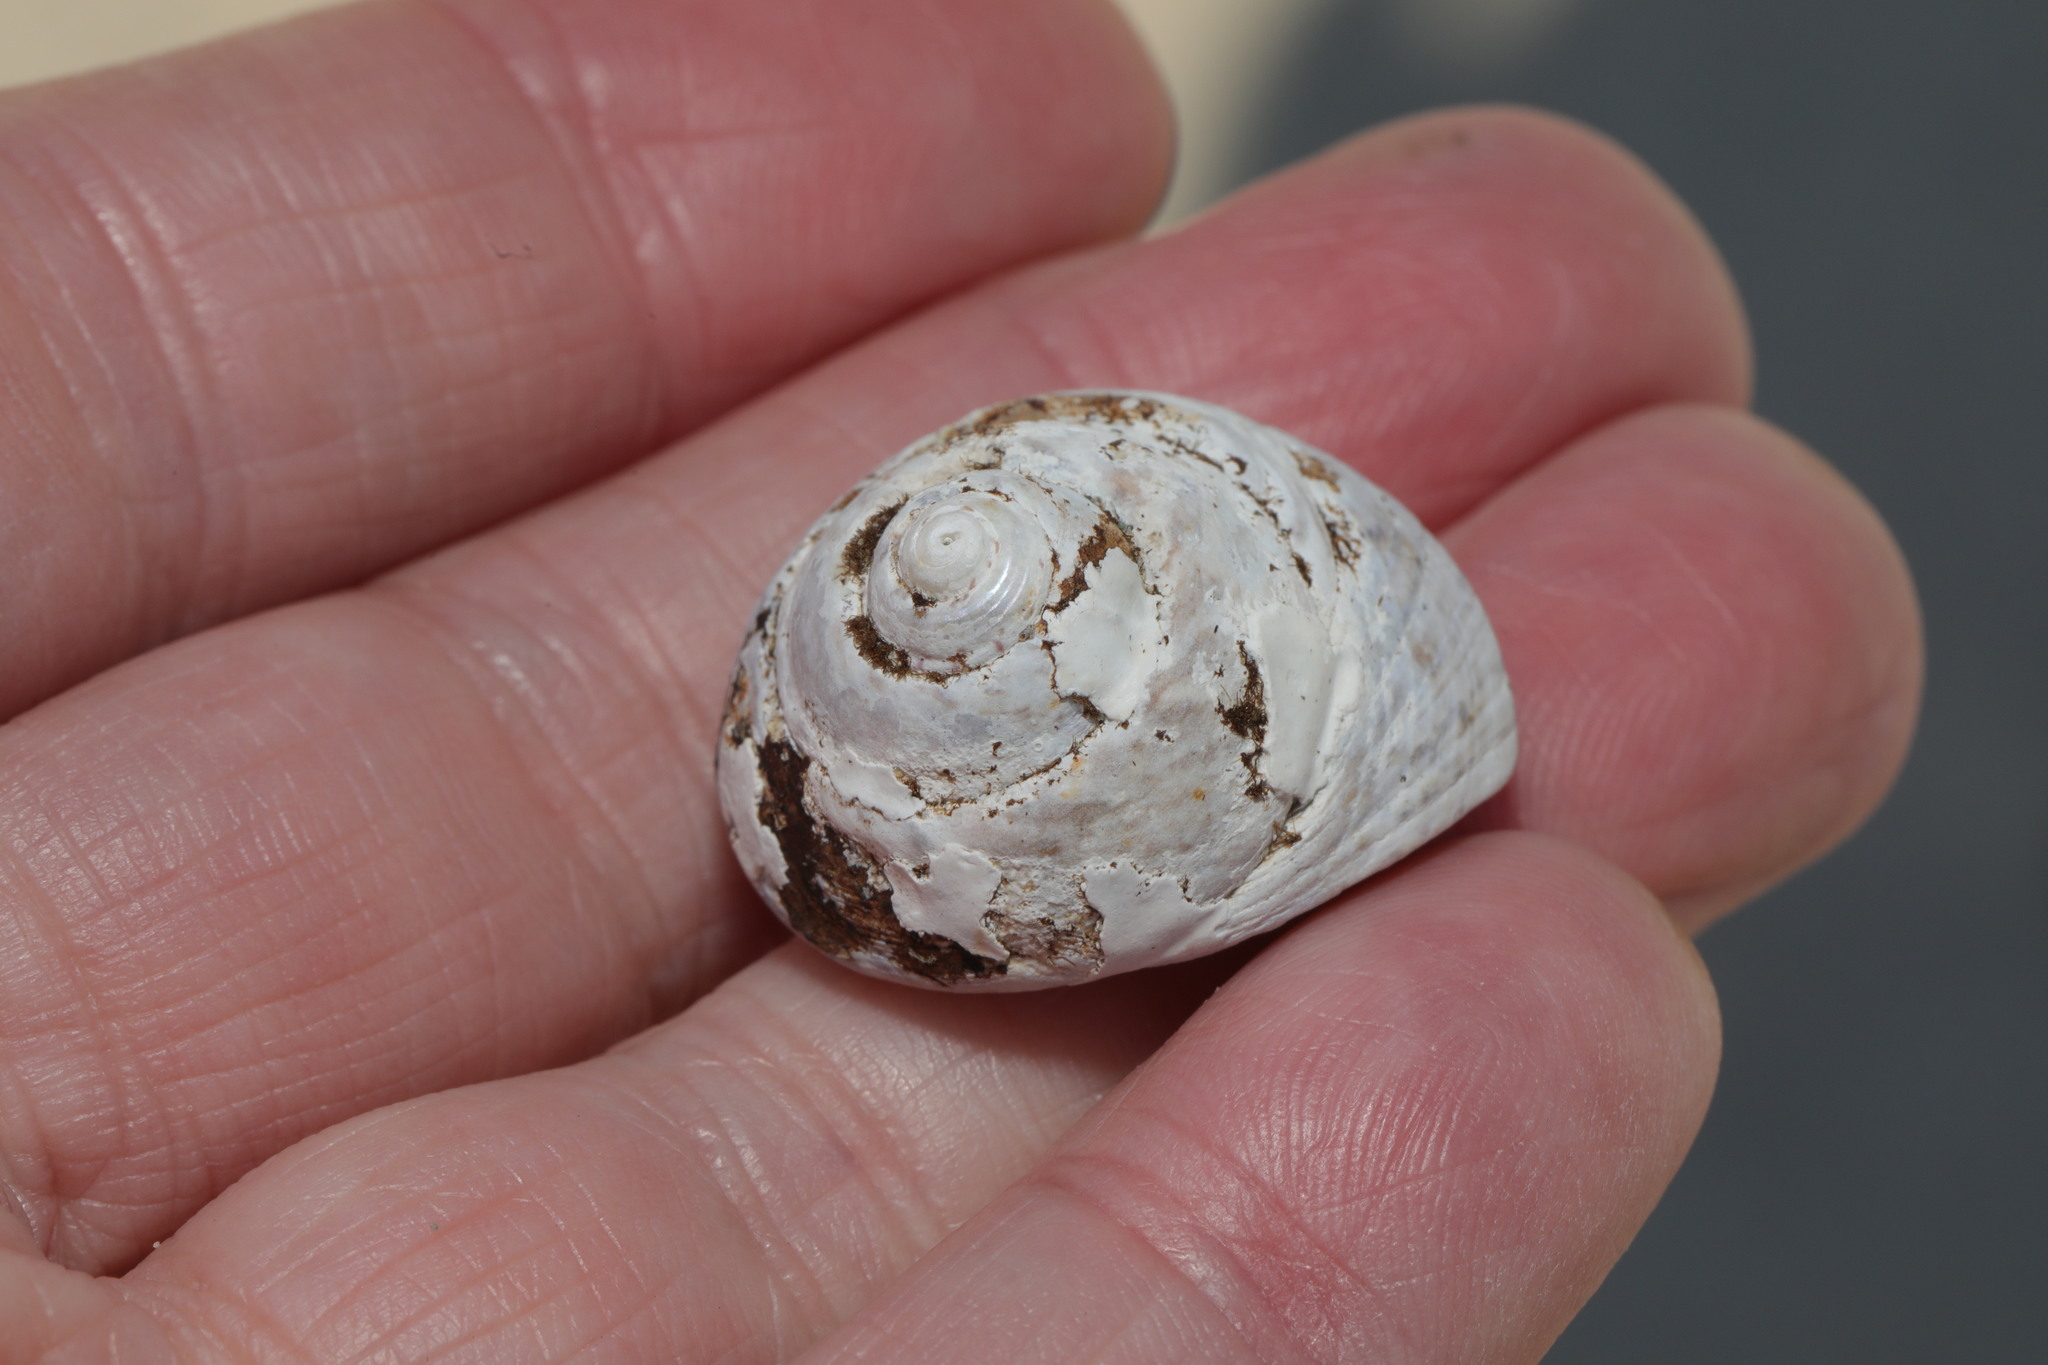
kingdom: Animalia
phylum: Mollusca
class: Gastropoda
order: Trochida
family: Trochidae
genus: Gibbula
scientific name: Gibbula magus
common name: Turban top shell
